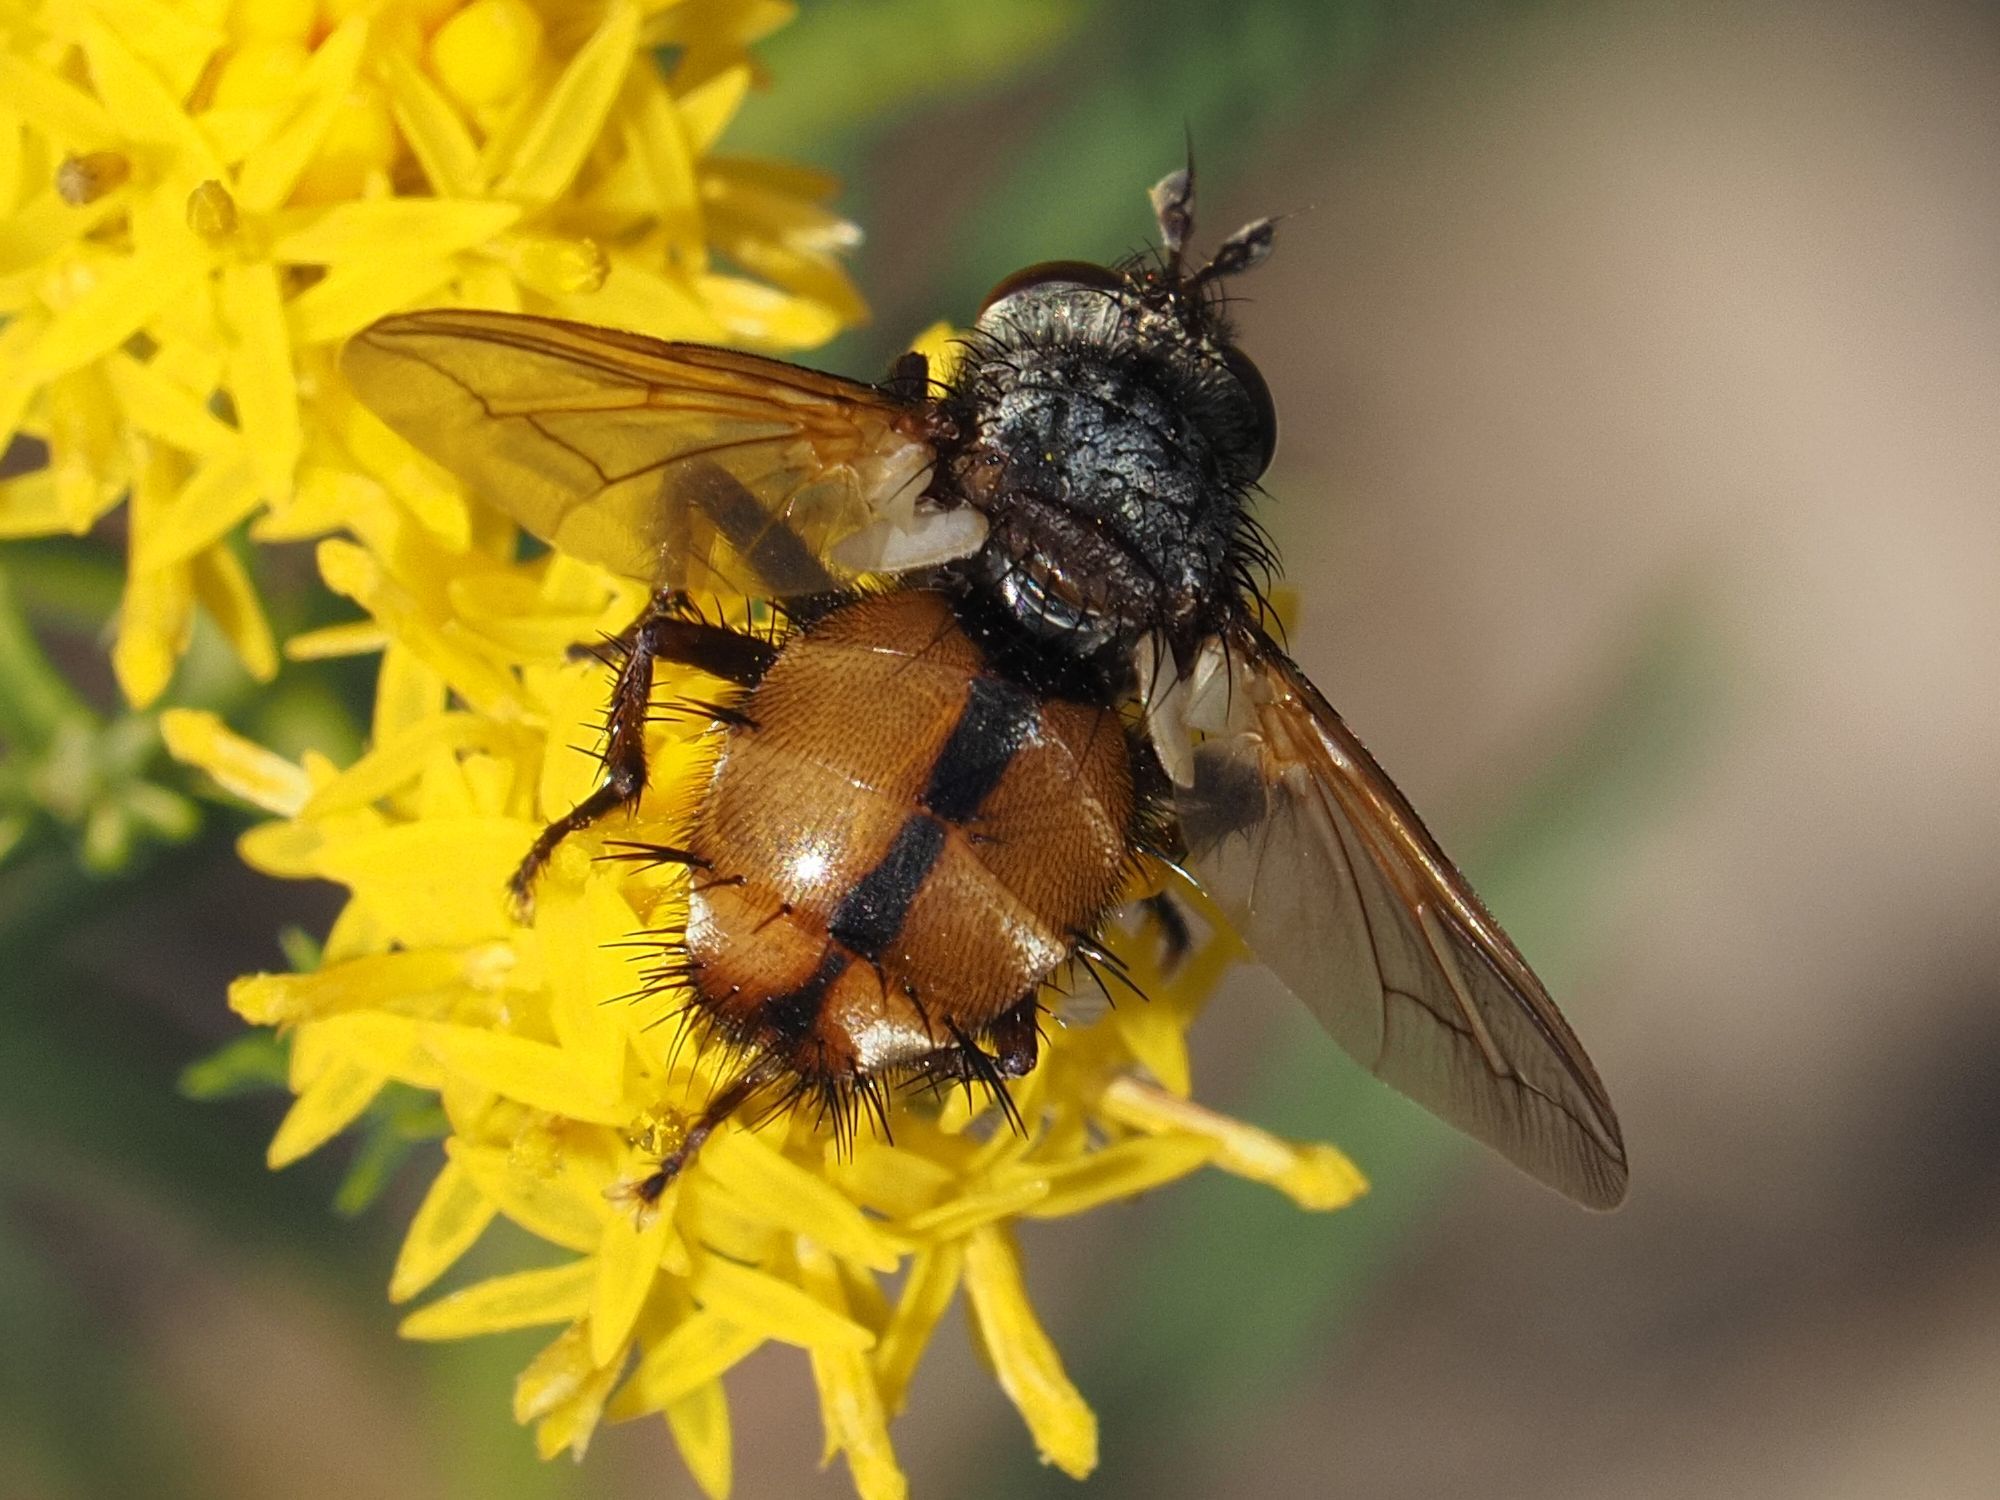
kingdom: Animalia
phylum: Arthropoda
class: Insecta
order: Diptera
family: Tachinidae
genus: Tachina
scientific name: Tachina fera
